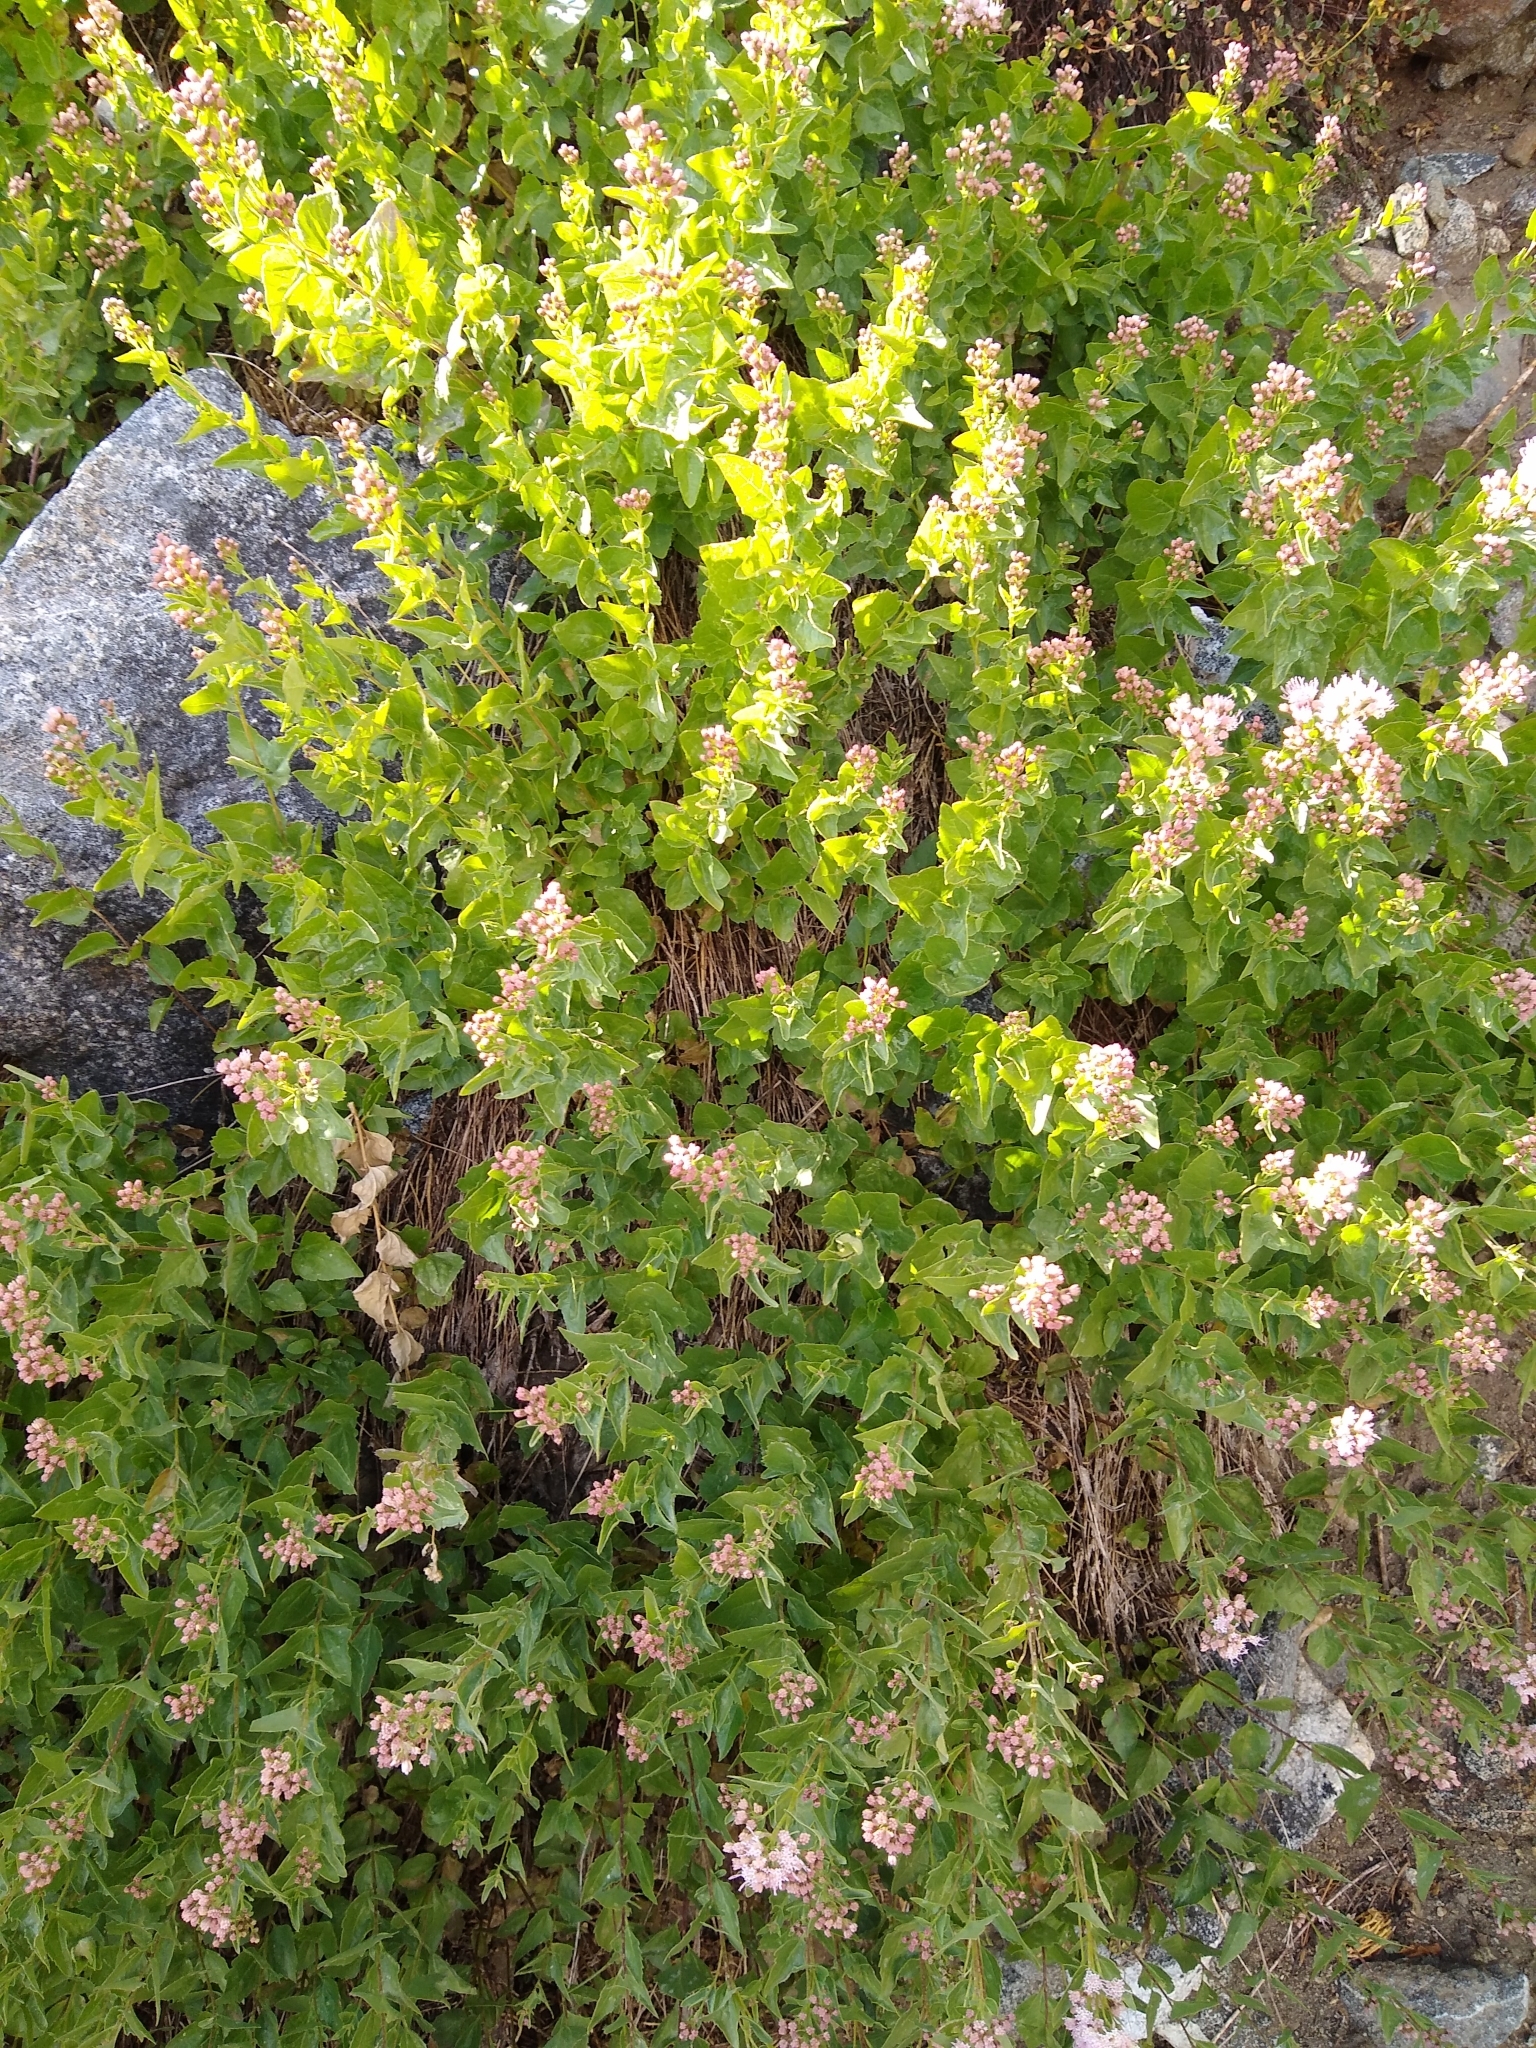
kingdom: Plantae
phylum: Tracheophyta
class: Magnoliopsida
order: Asterales
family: Asteraceae
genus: Ageratina
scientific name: Ageratina occidentalis
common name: Western snakeroot
